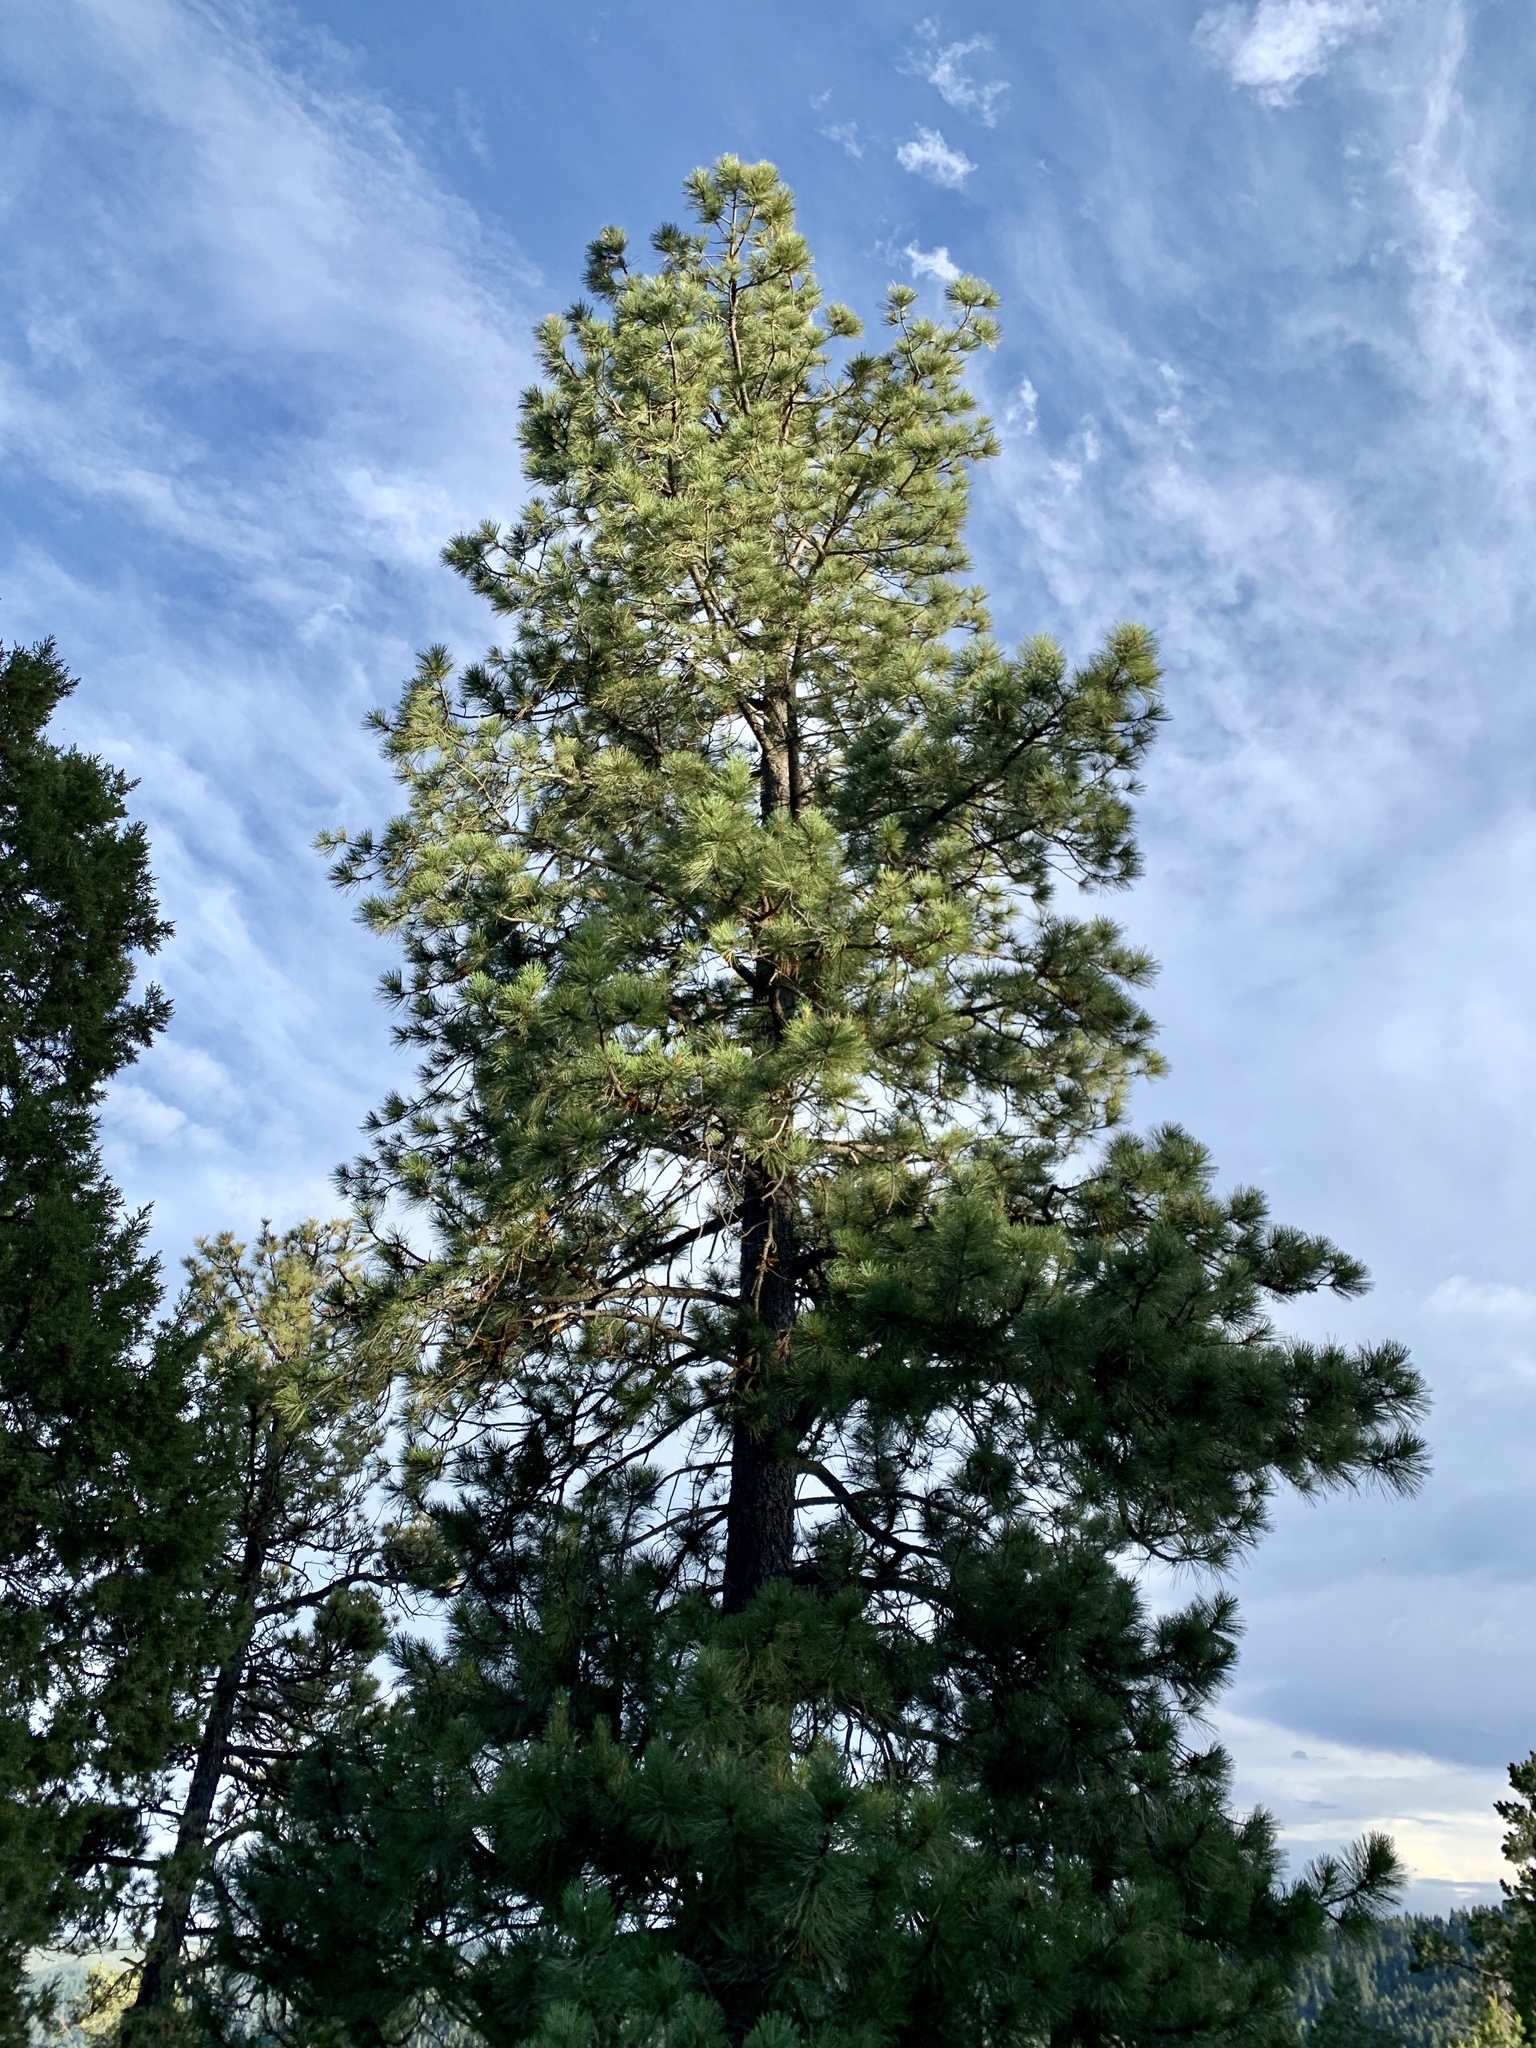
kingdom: Plantae
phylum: Tracheophyta
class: Pinopsida
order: Pinales
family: Pinaceae
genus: Pinus
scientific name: Pinus ponderosa
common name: Western yellow-pine
